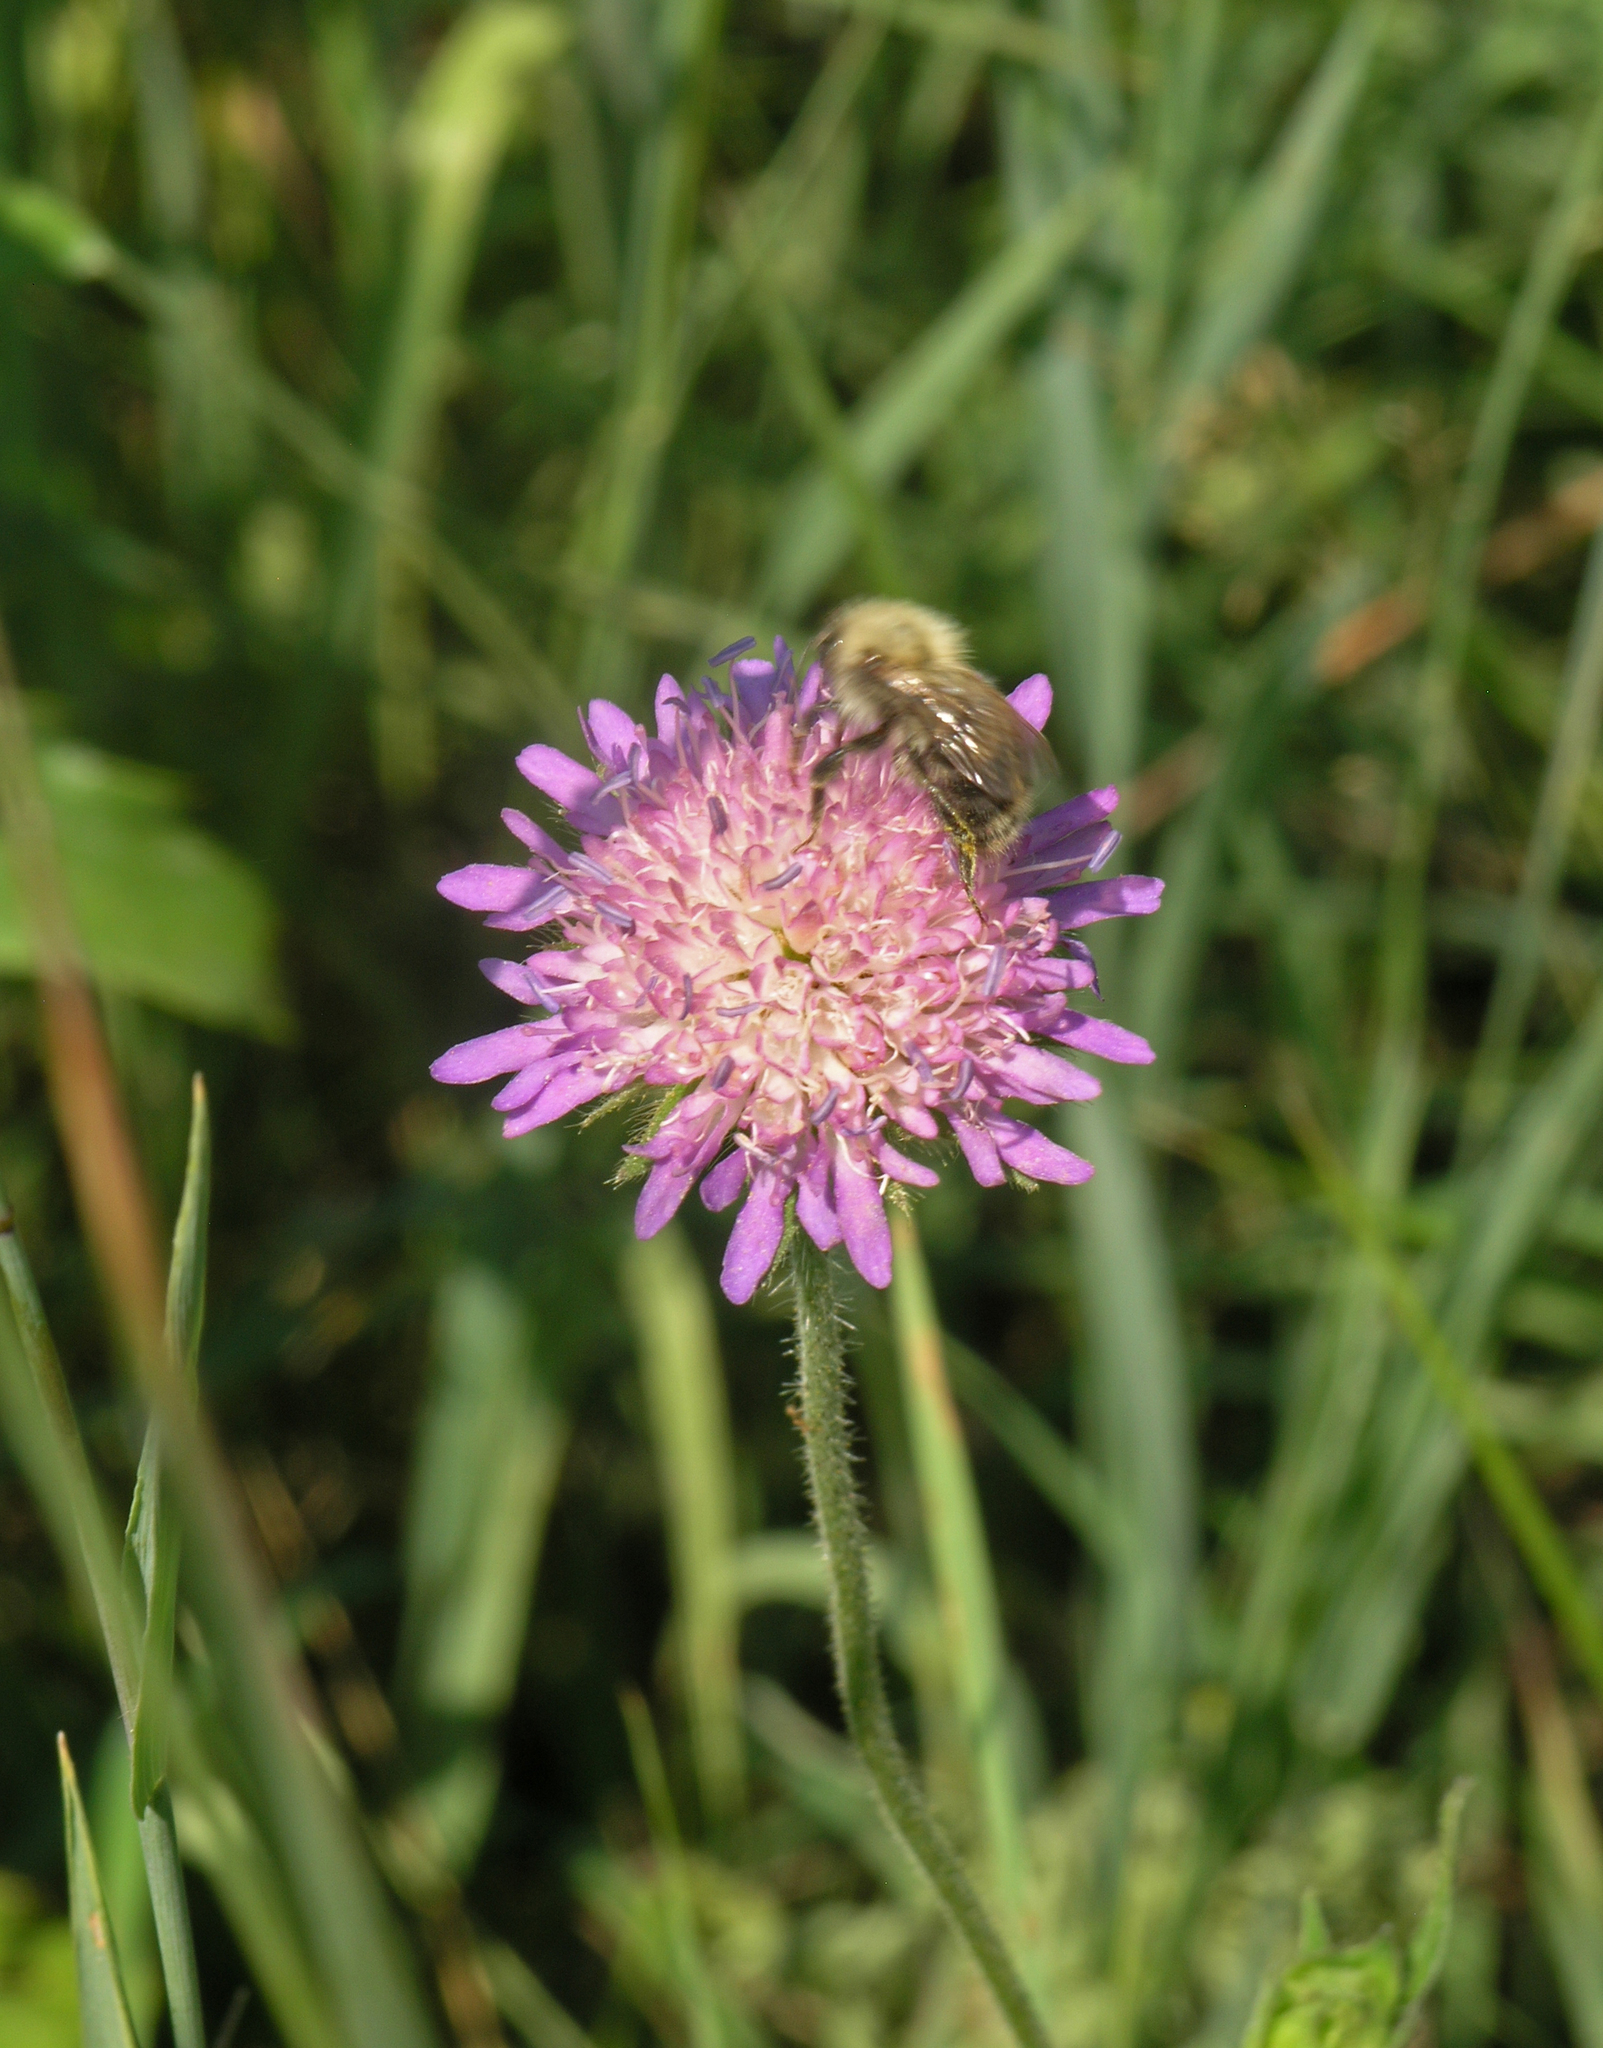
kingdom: Plantae
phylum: Tracheophyta
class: Magnoliopsida
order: Dipsacales
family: Caprifoliaceae
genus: Knautia
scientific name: Knautia arvensis
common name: Field scabiosa
